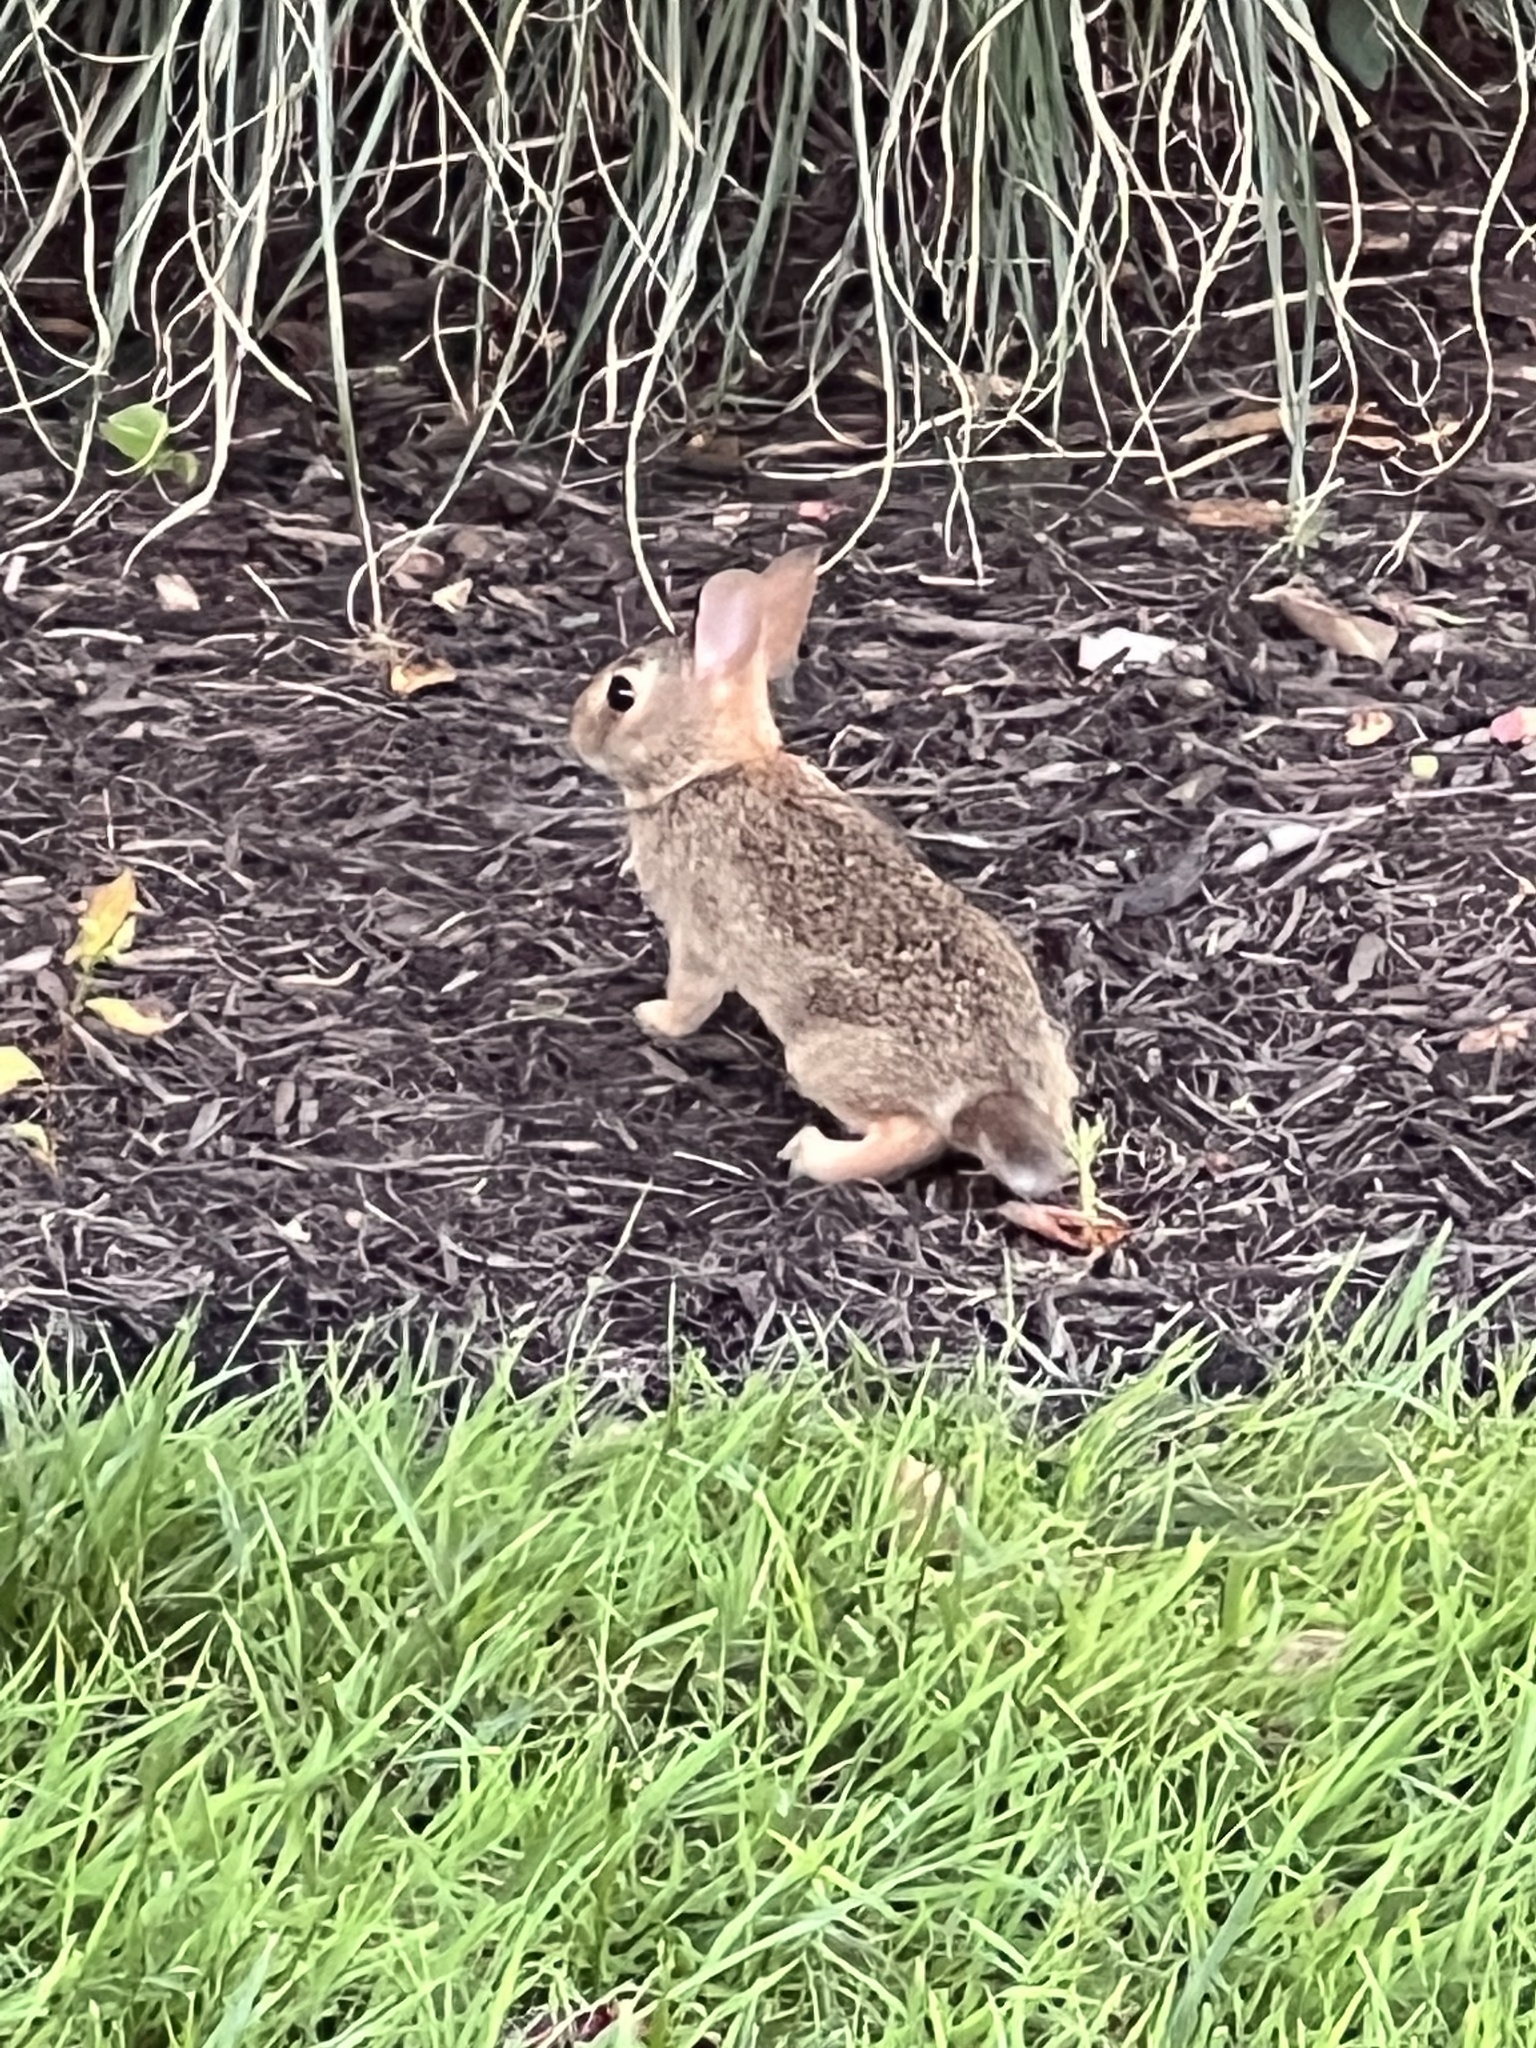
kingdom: Animalia
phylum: Chordata
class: Mammalia
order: Lagomorpha
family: Leporidae
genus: Sylvilagus
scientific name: Sylvilagus floridanus
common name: Eastern cottontail
